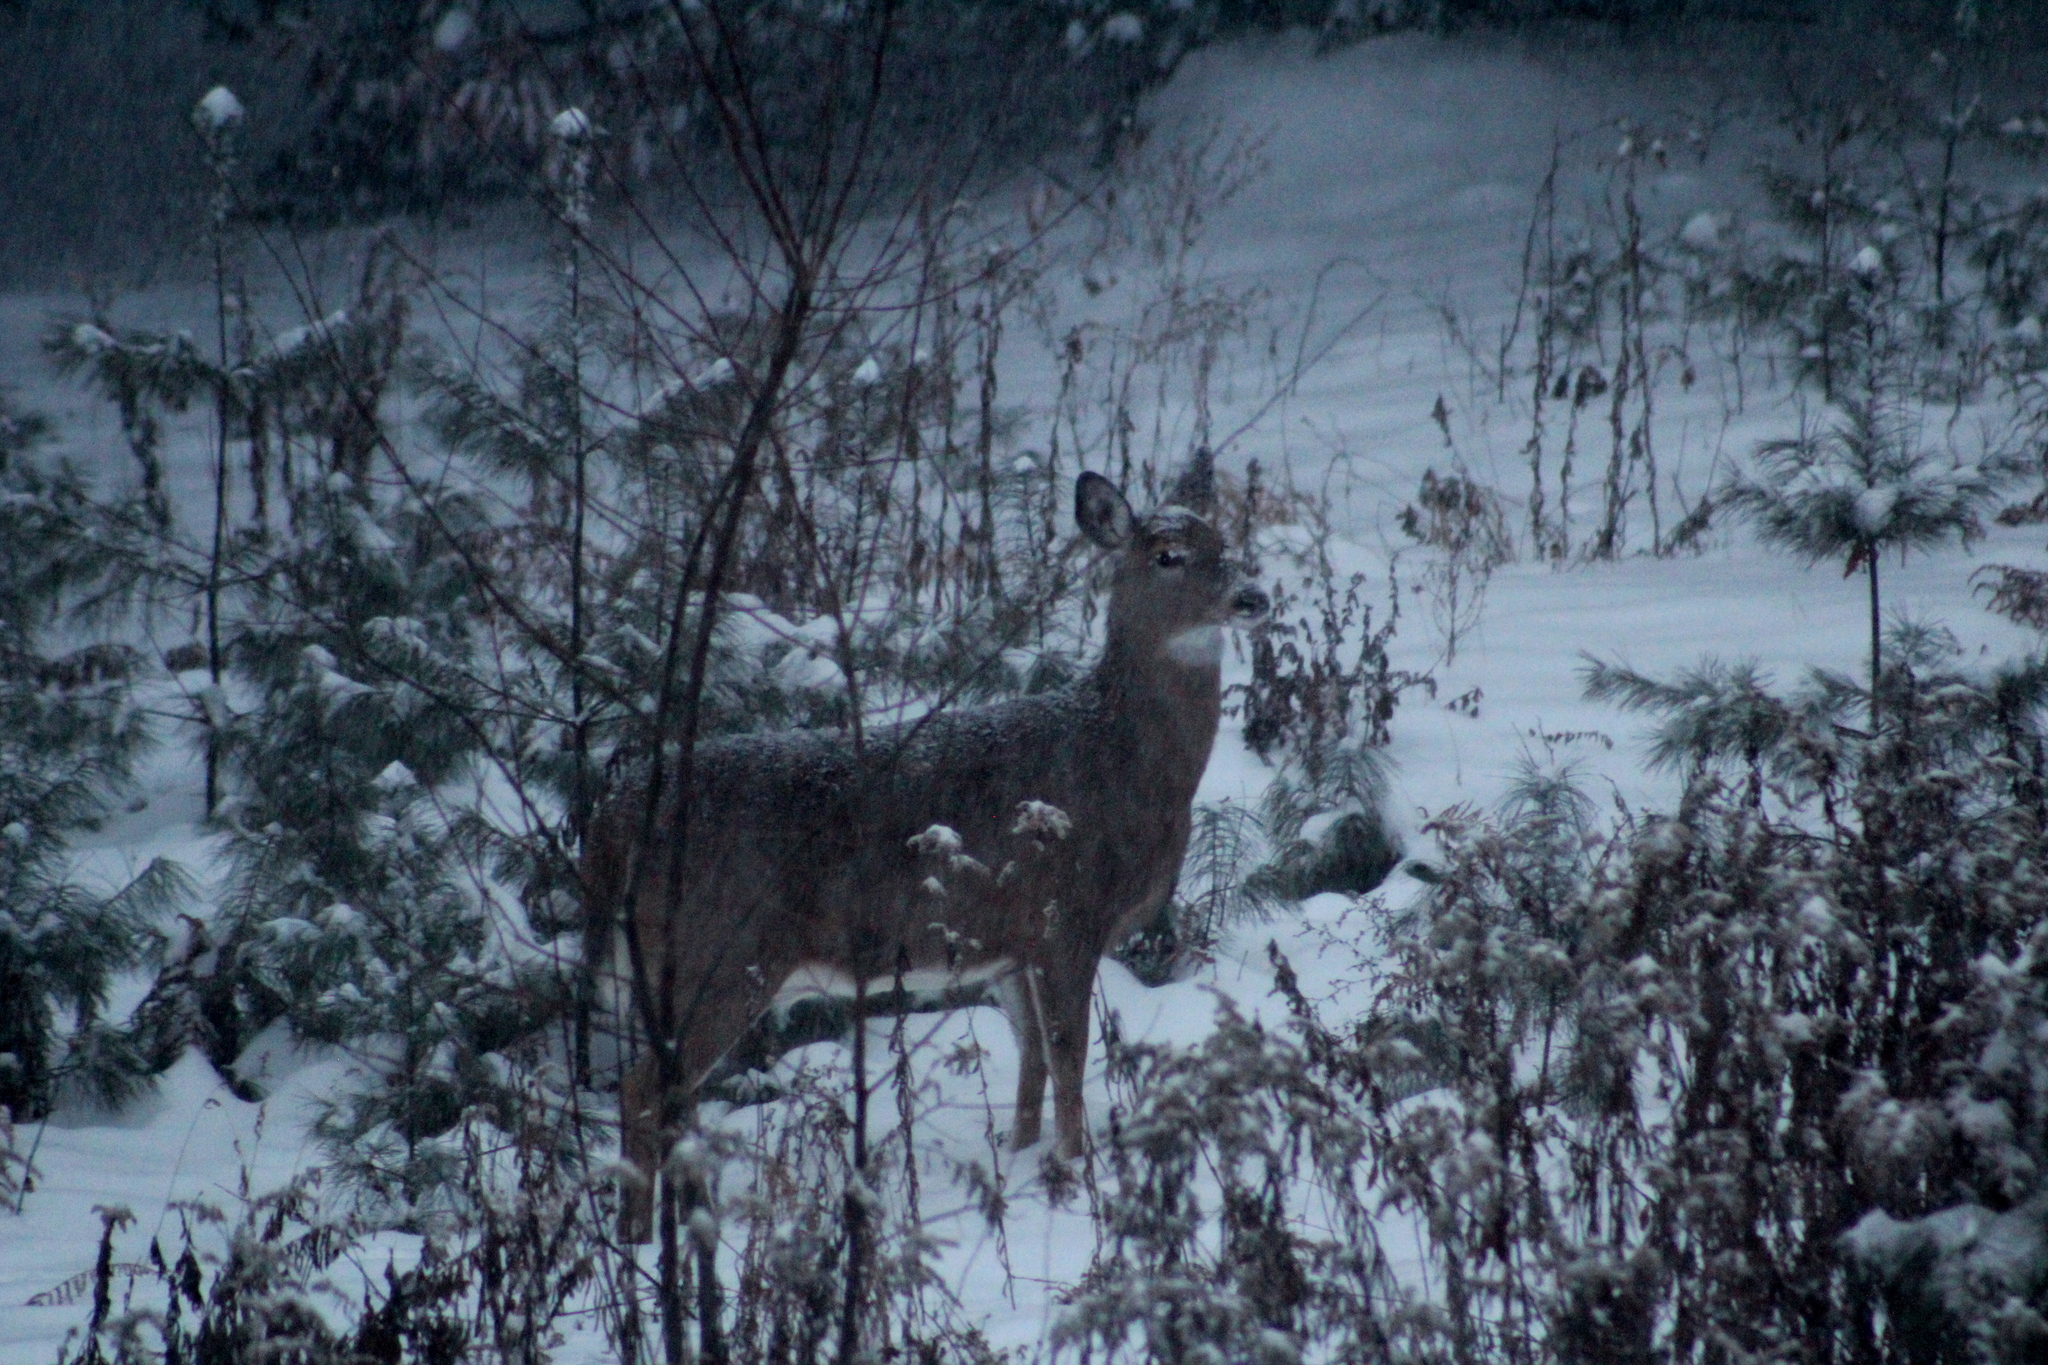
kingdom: Animalia
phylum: Chordata
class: Mammalia
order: Artiodactyla
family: Cervidae
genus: Odocoileus
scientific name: Odocoileus virginianus
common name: White-tailed deer
